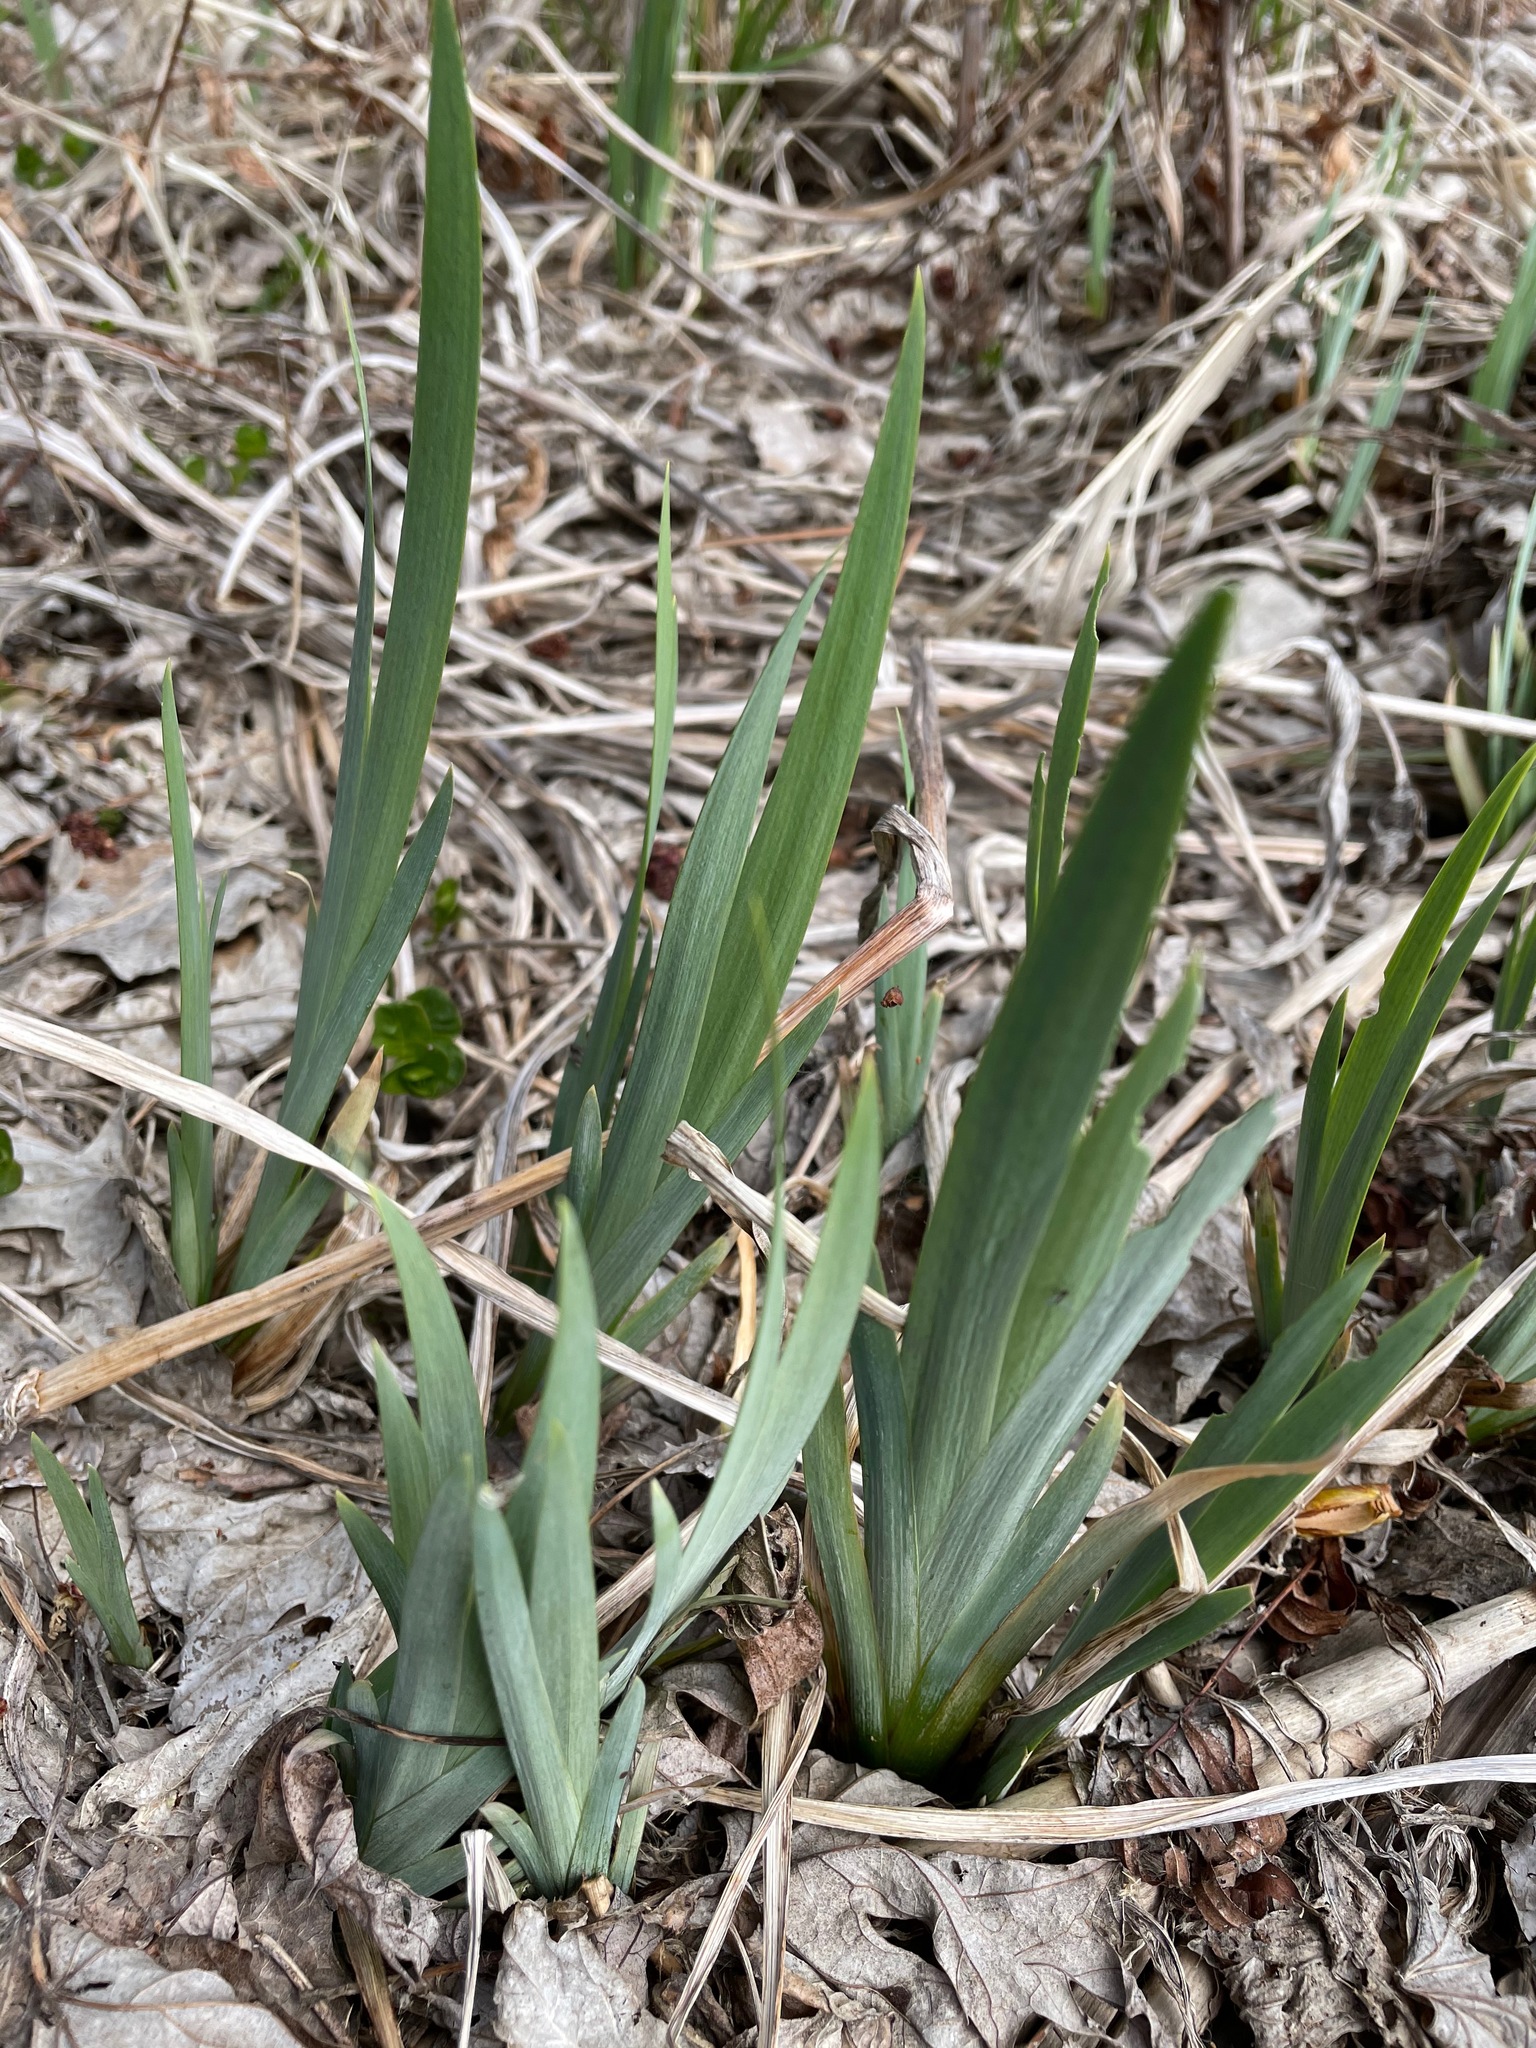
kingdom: Plantae
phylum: Tracheophyta
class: Liliopsida
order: Asparagales
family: Iridaceae
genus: Iris
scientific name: Iris
